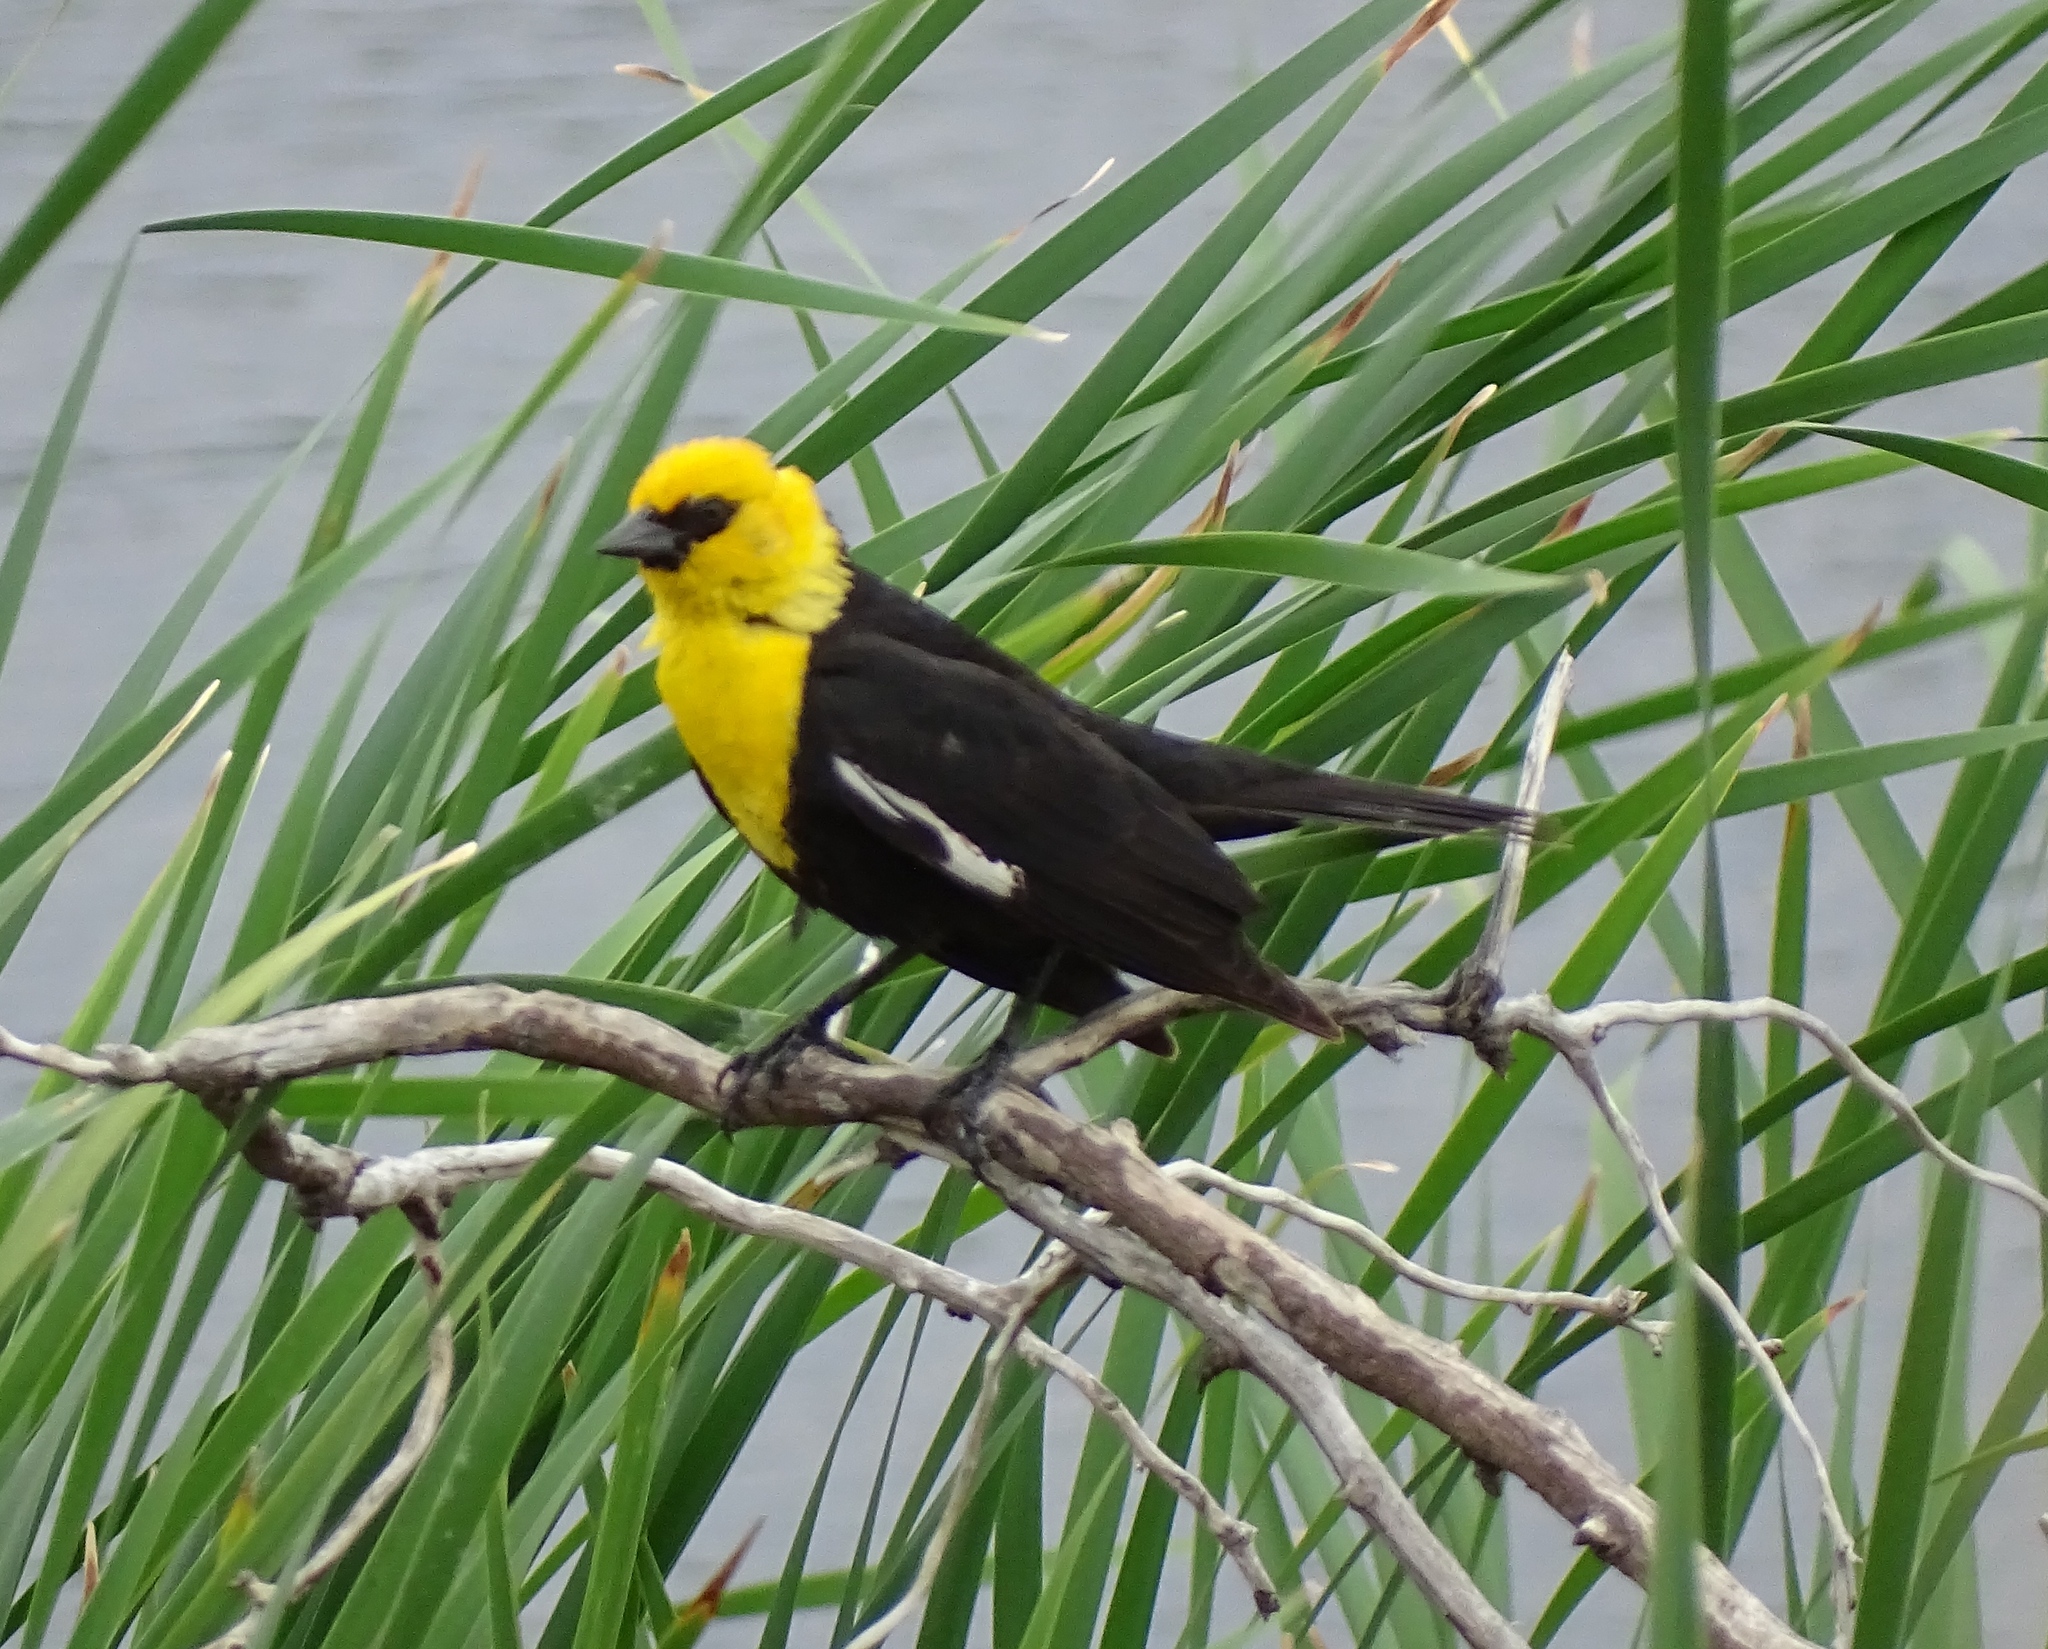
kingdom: Animalia
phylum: Chordata
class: Aves
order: Passeriformes
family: Icteridae
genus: Xanthocephalus
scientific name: Xanthocephalus xanthocephalus
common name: Yellow-headed blackbird
